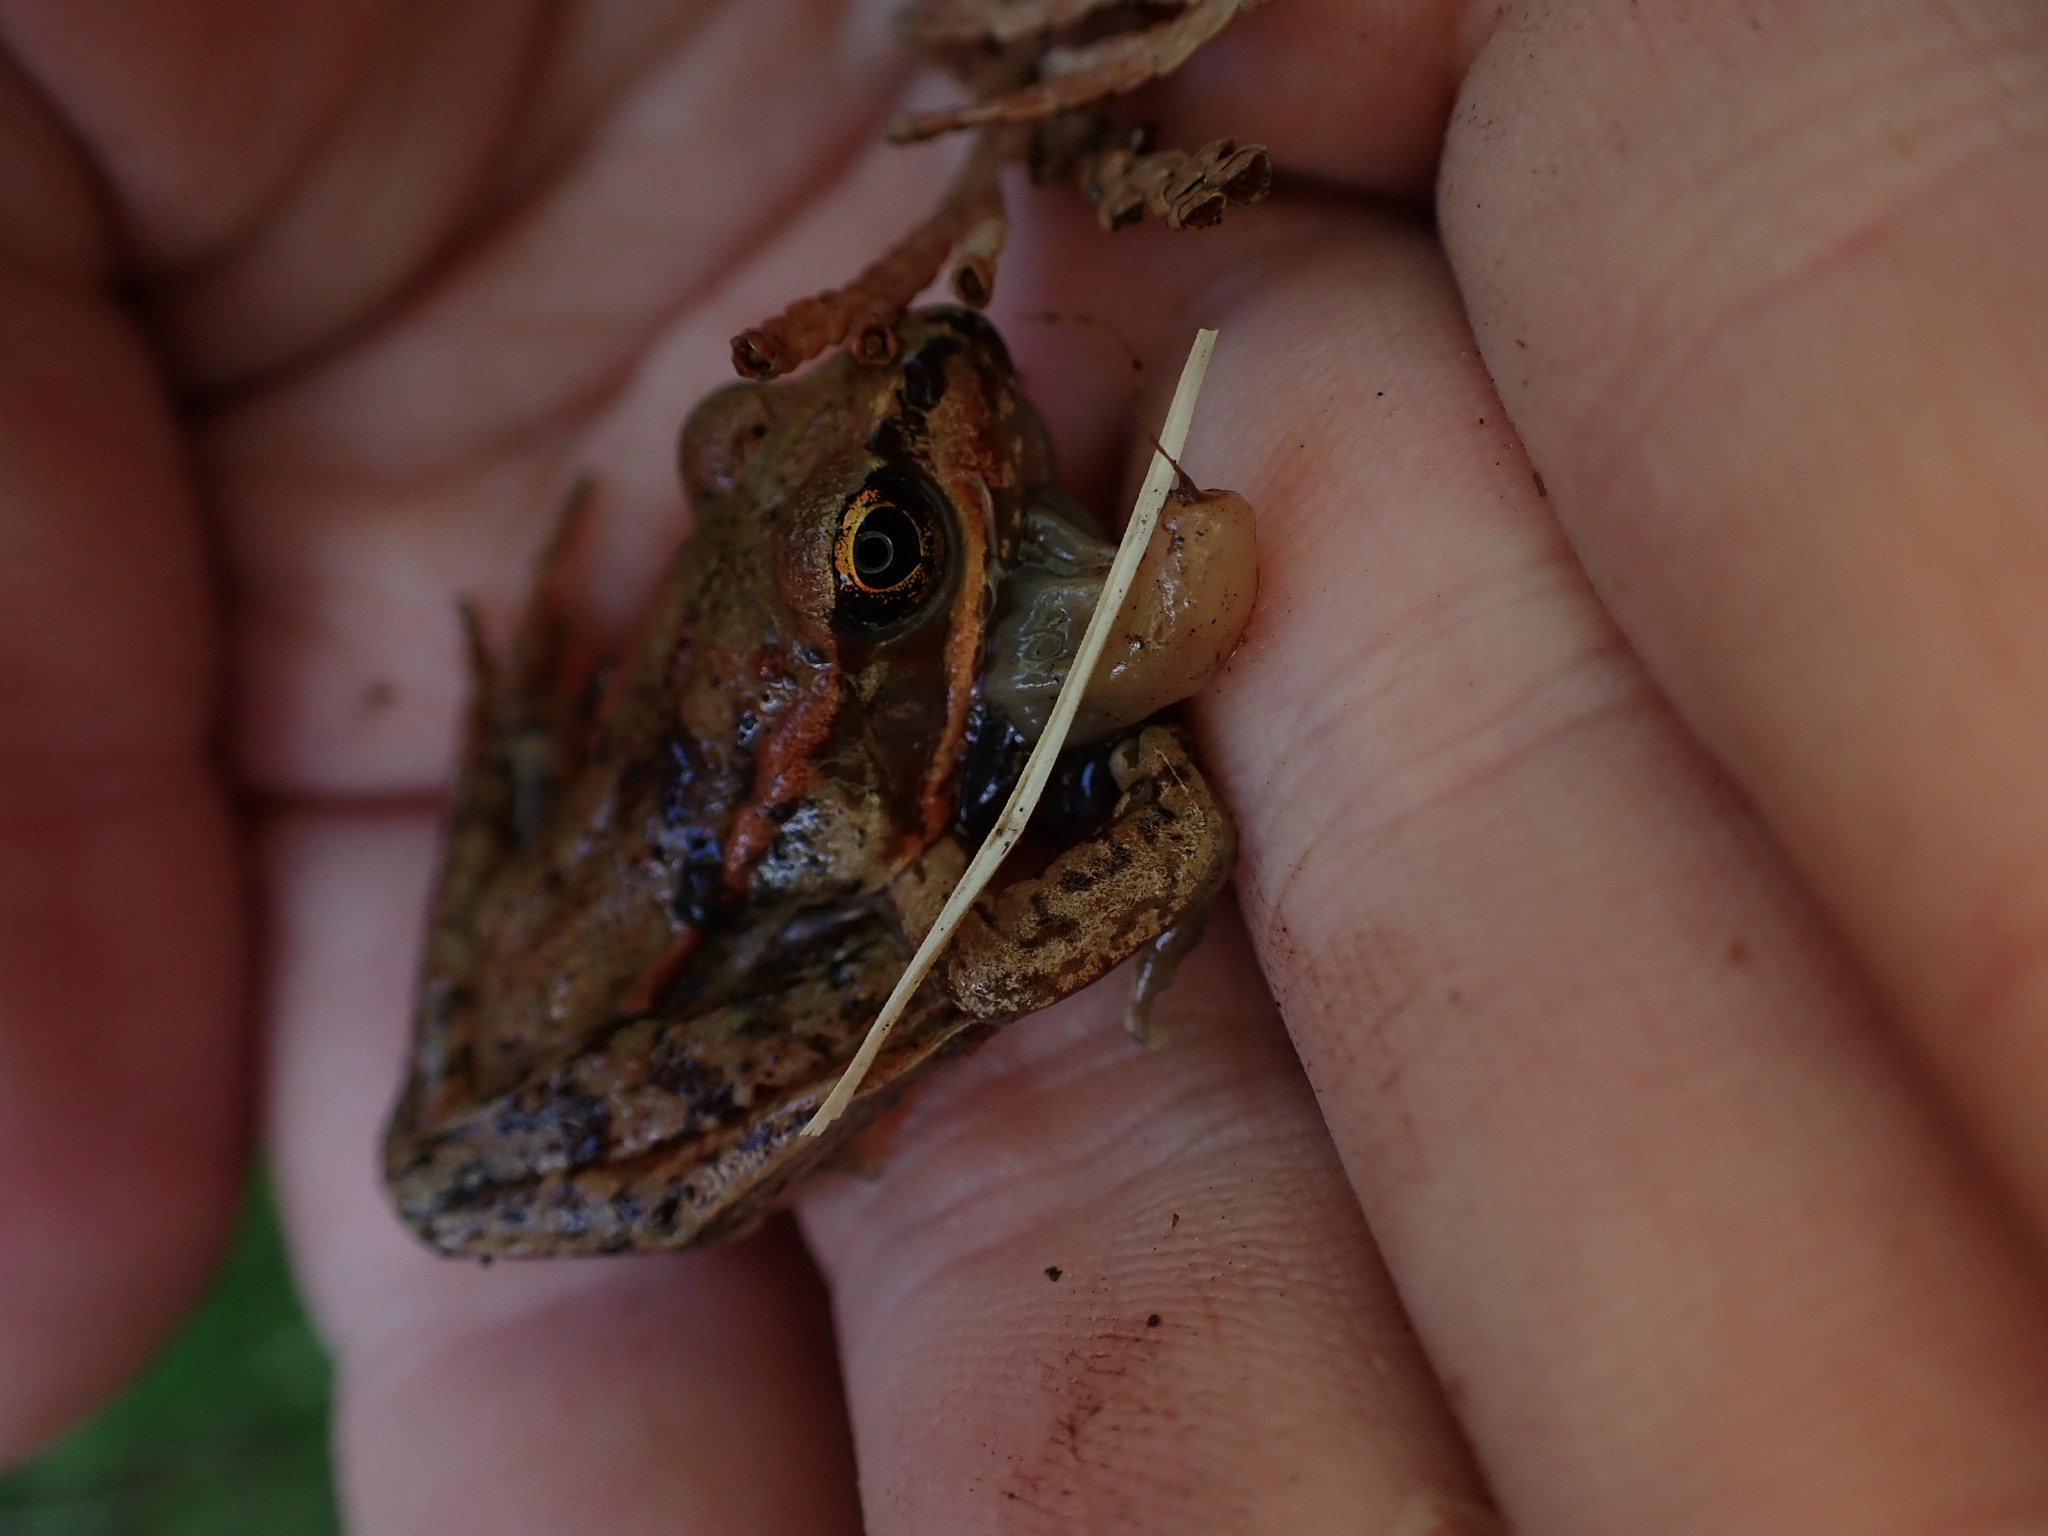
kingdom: Animalia
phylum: Chordata
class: Amphibia
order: Anura
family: Ranidae
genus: Rana
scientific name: Rana aurora
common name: Red-legged frog
